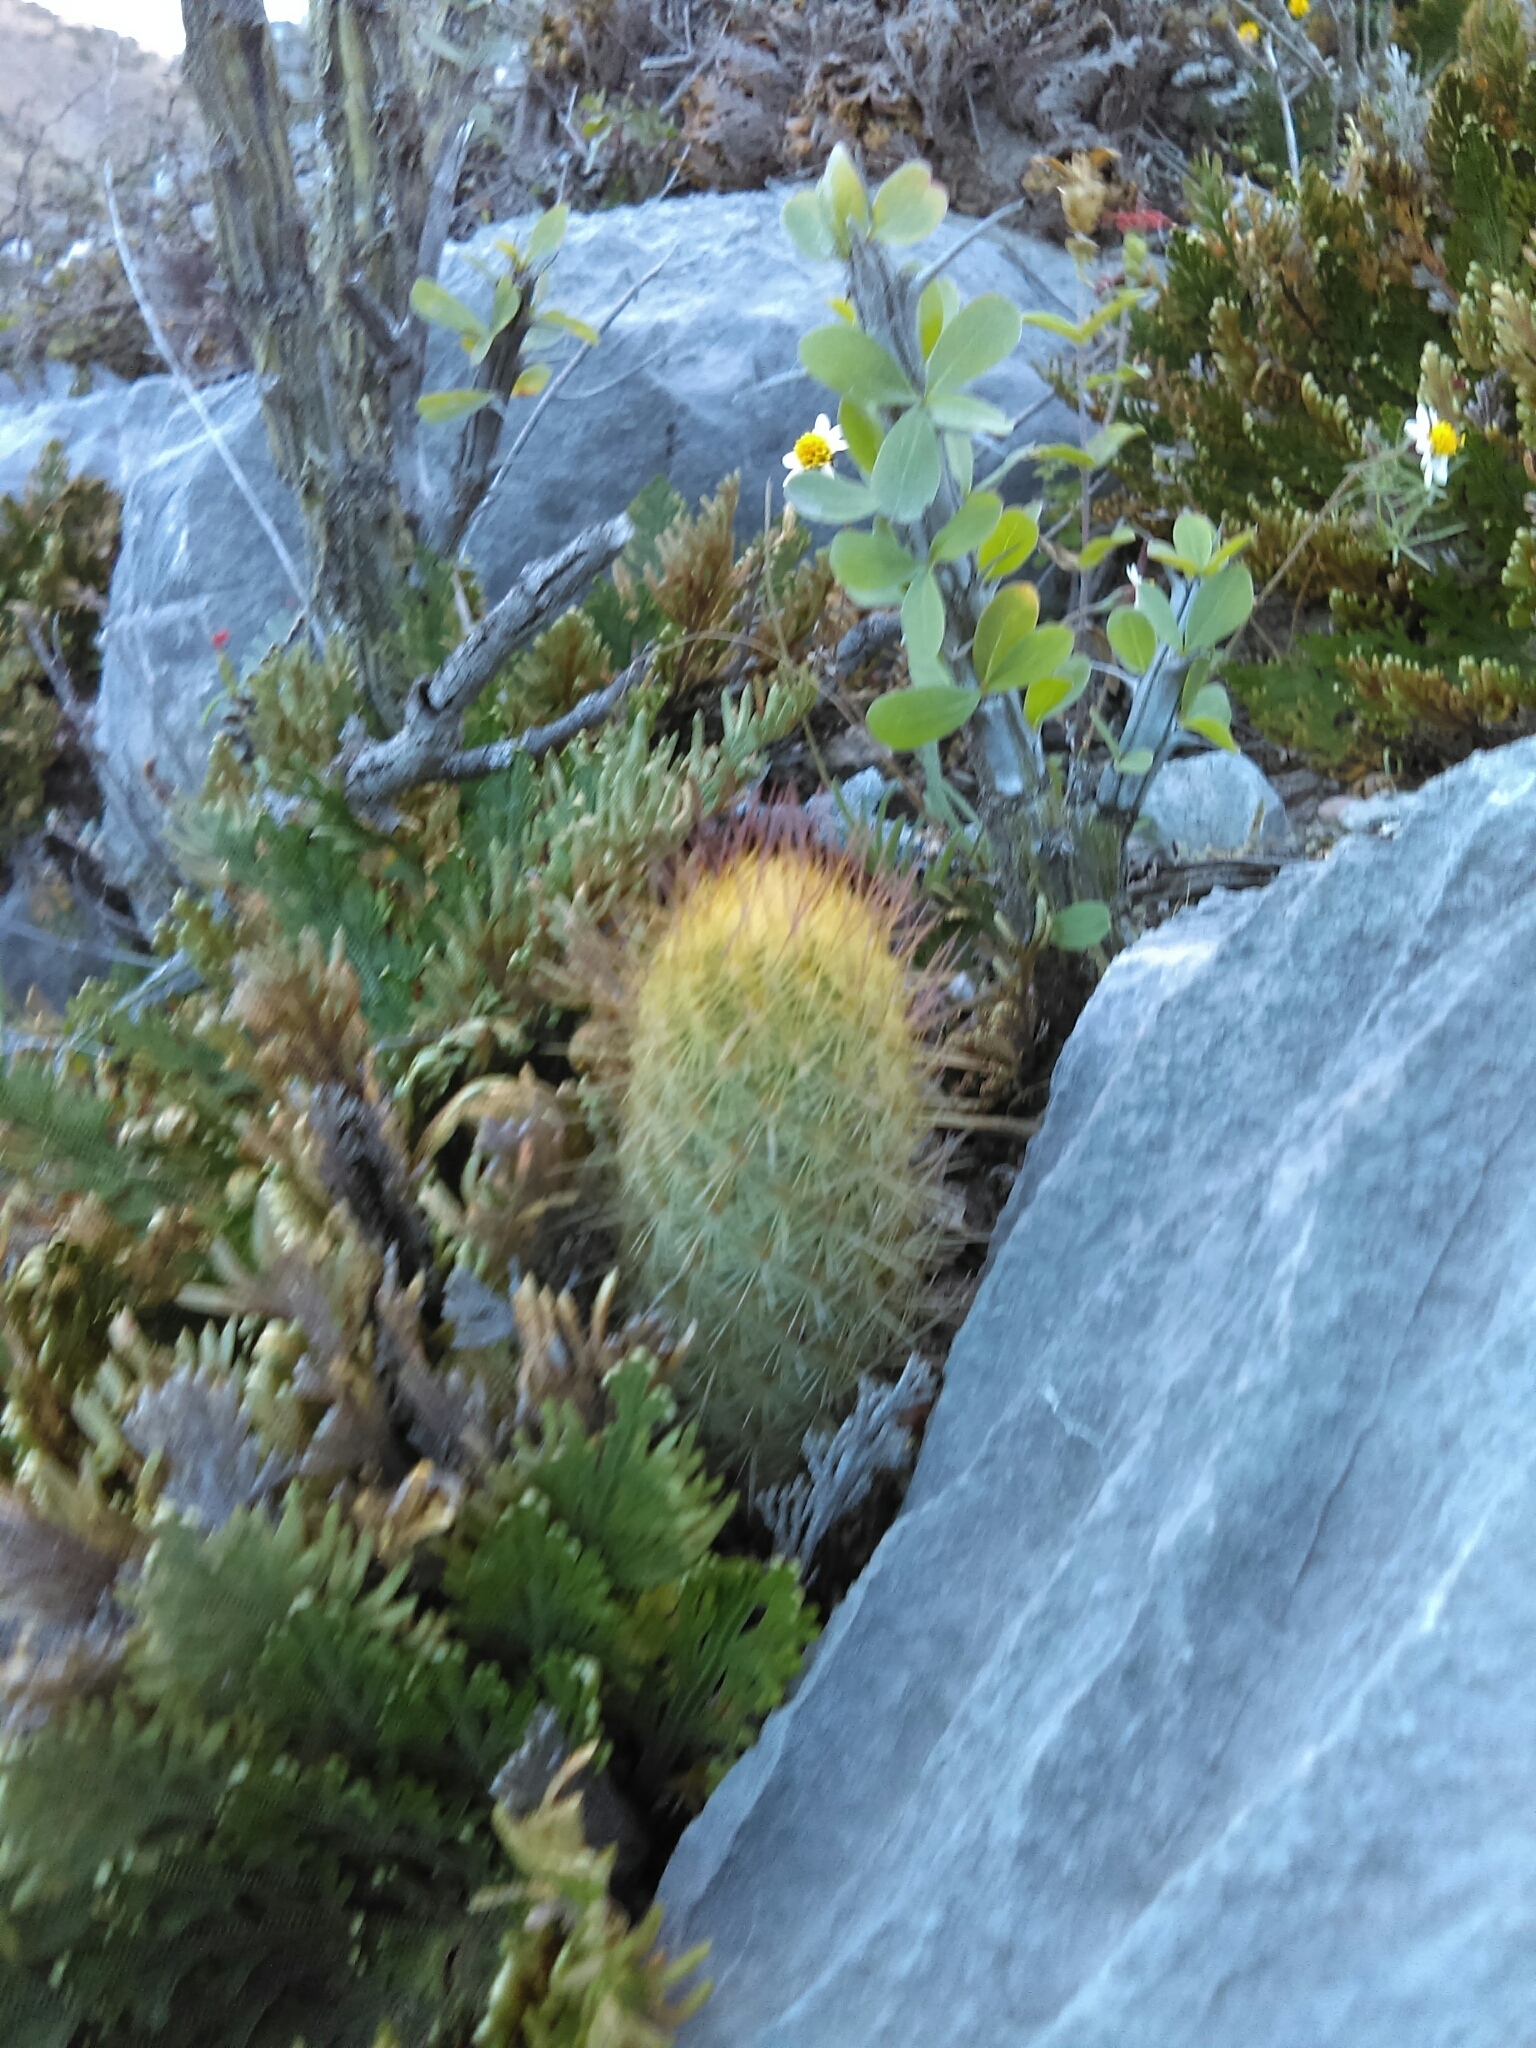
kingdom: Plantae
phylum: Tracheophyta
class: Magnoliopsida
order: Caryophyllales
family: Cactaceae
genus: Mammillaria
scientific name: Mammillaria elongata
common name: Golden star cactus
